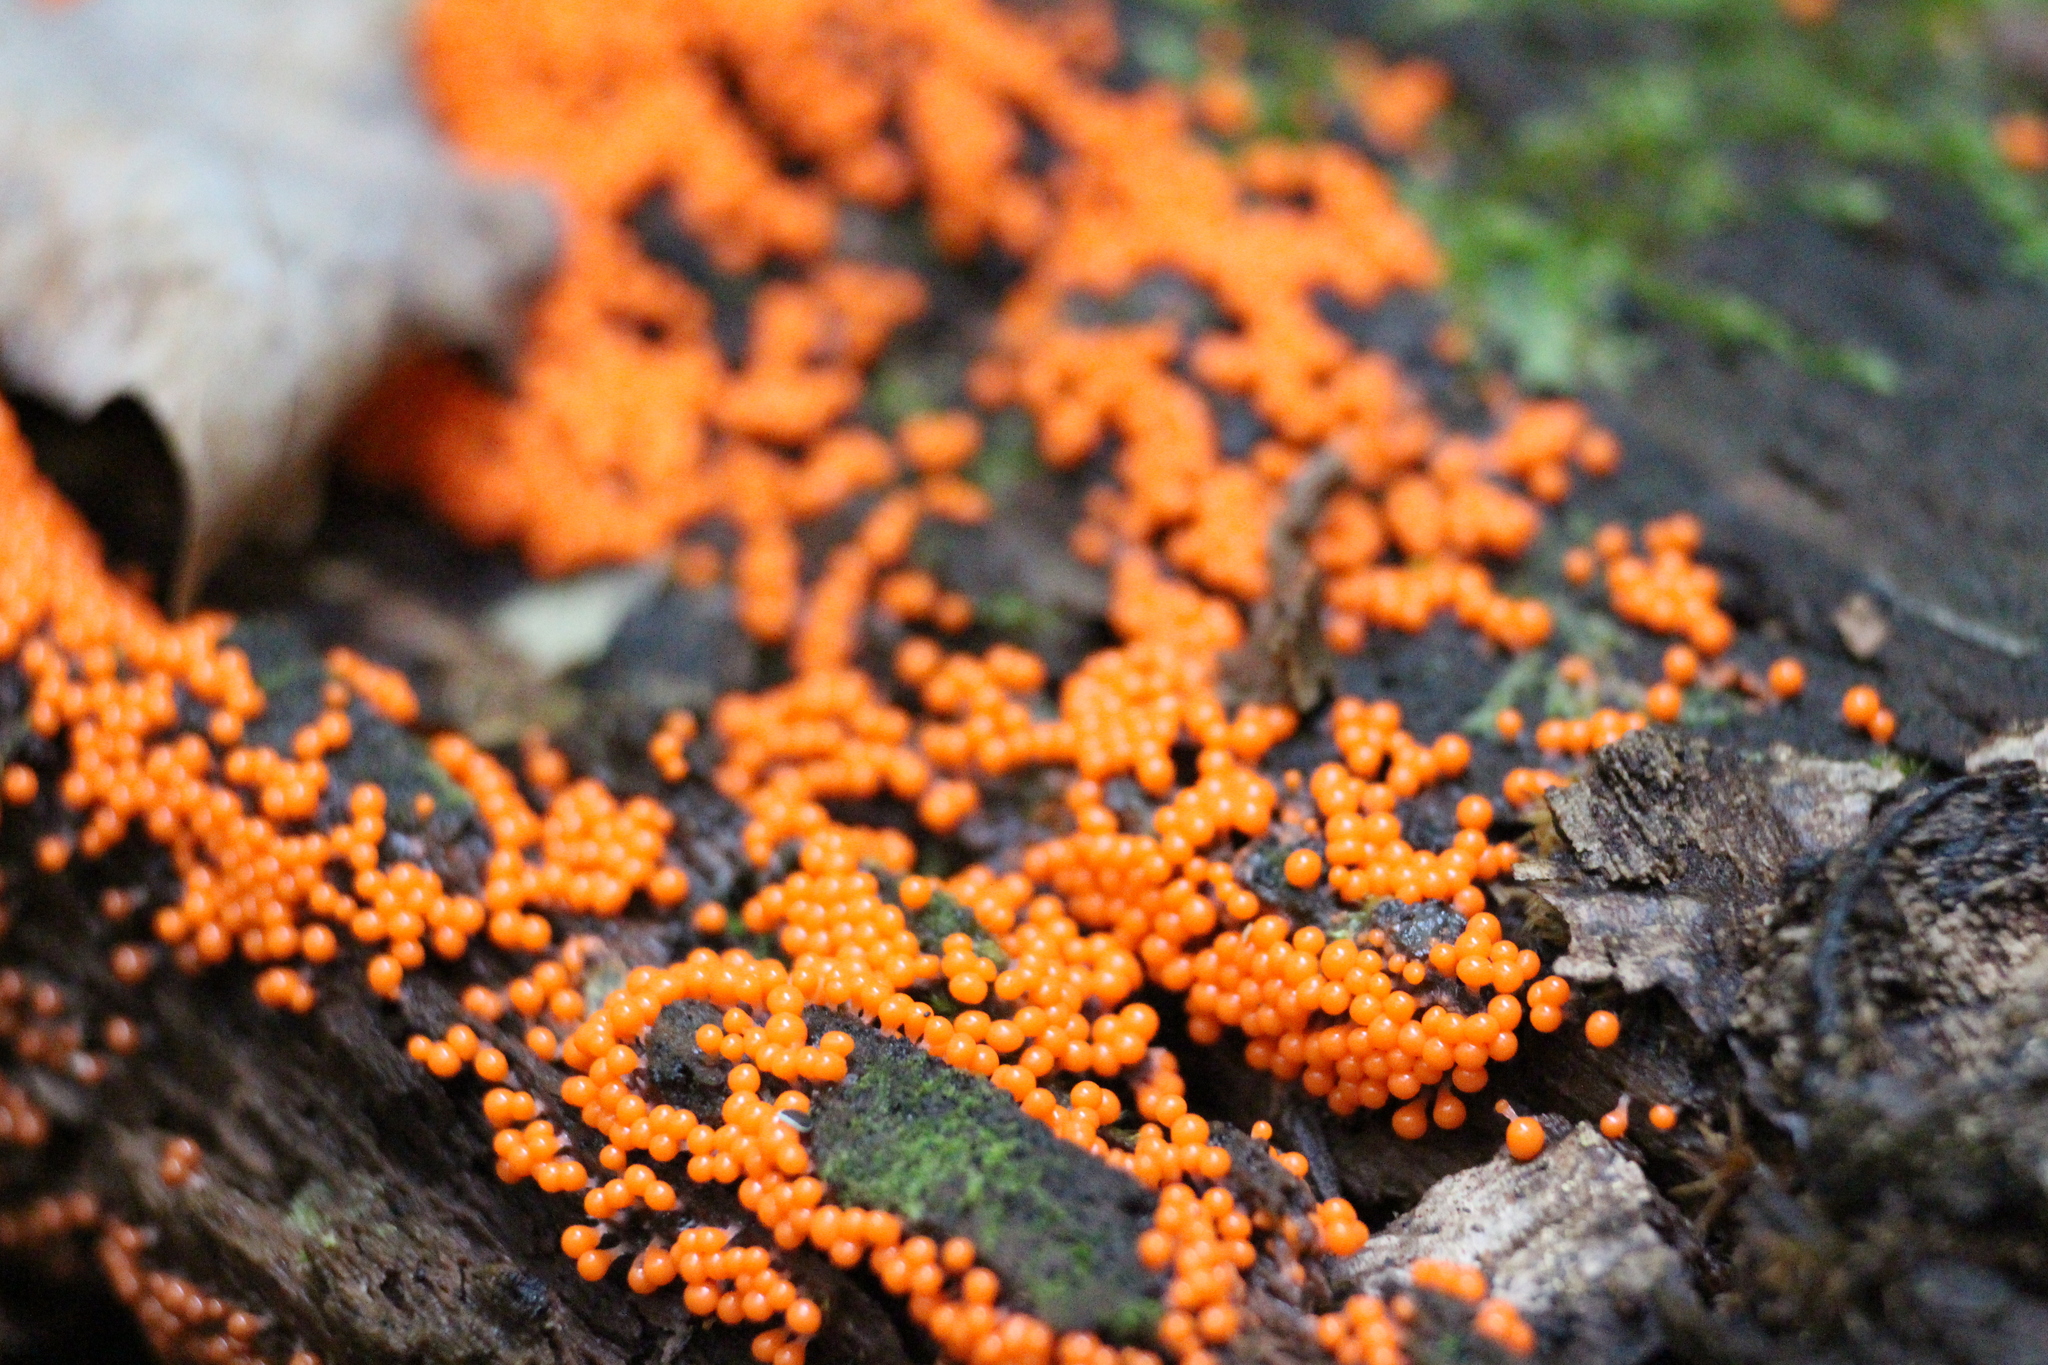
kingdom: Protozoa
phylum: Mycetozoa
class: Myxomycetes
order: Trichiales
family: Arcyriaceae
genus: Hemitrichia
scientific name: Hemitrichia decipiens
